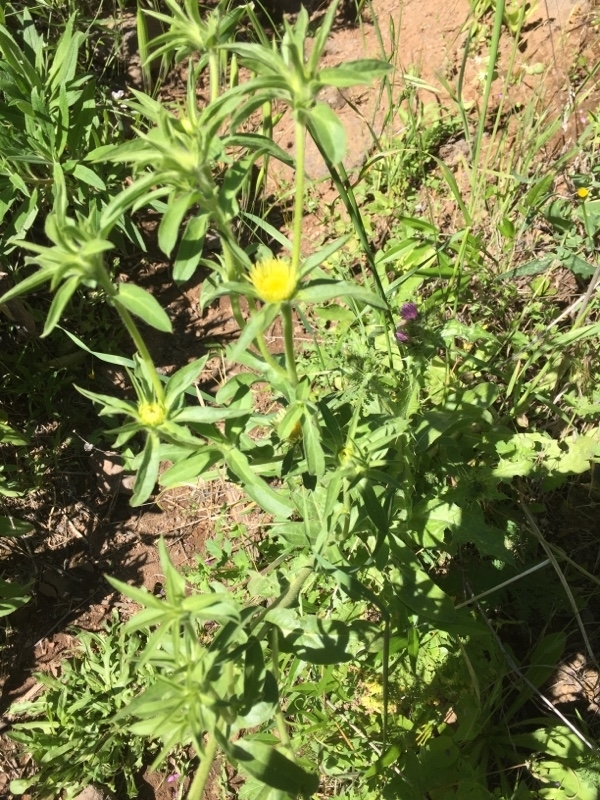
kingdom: Plantae
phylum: Tracheophyta
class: Magnoliopsida
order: Asterales
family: Asteraceae
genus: Pallenis
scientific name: Pallenis spinosa
